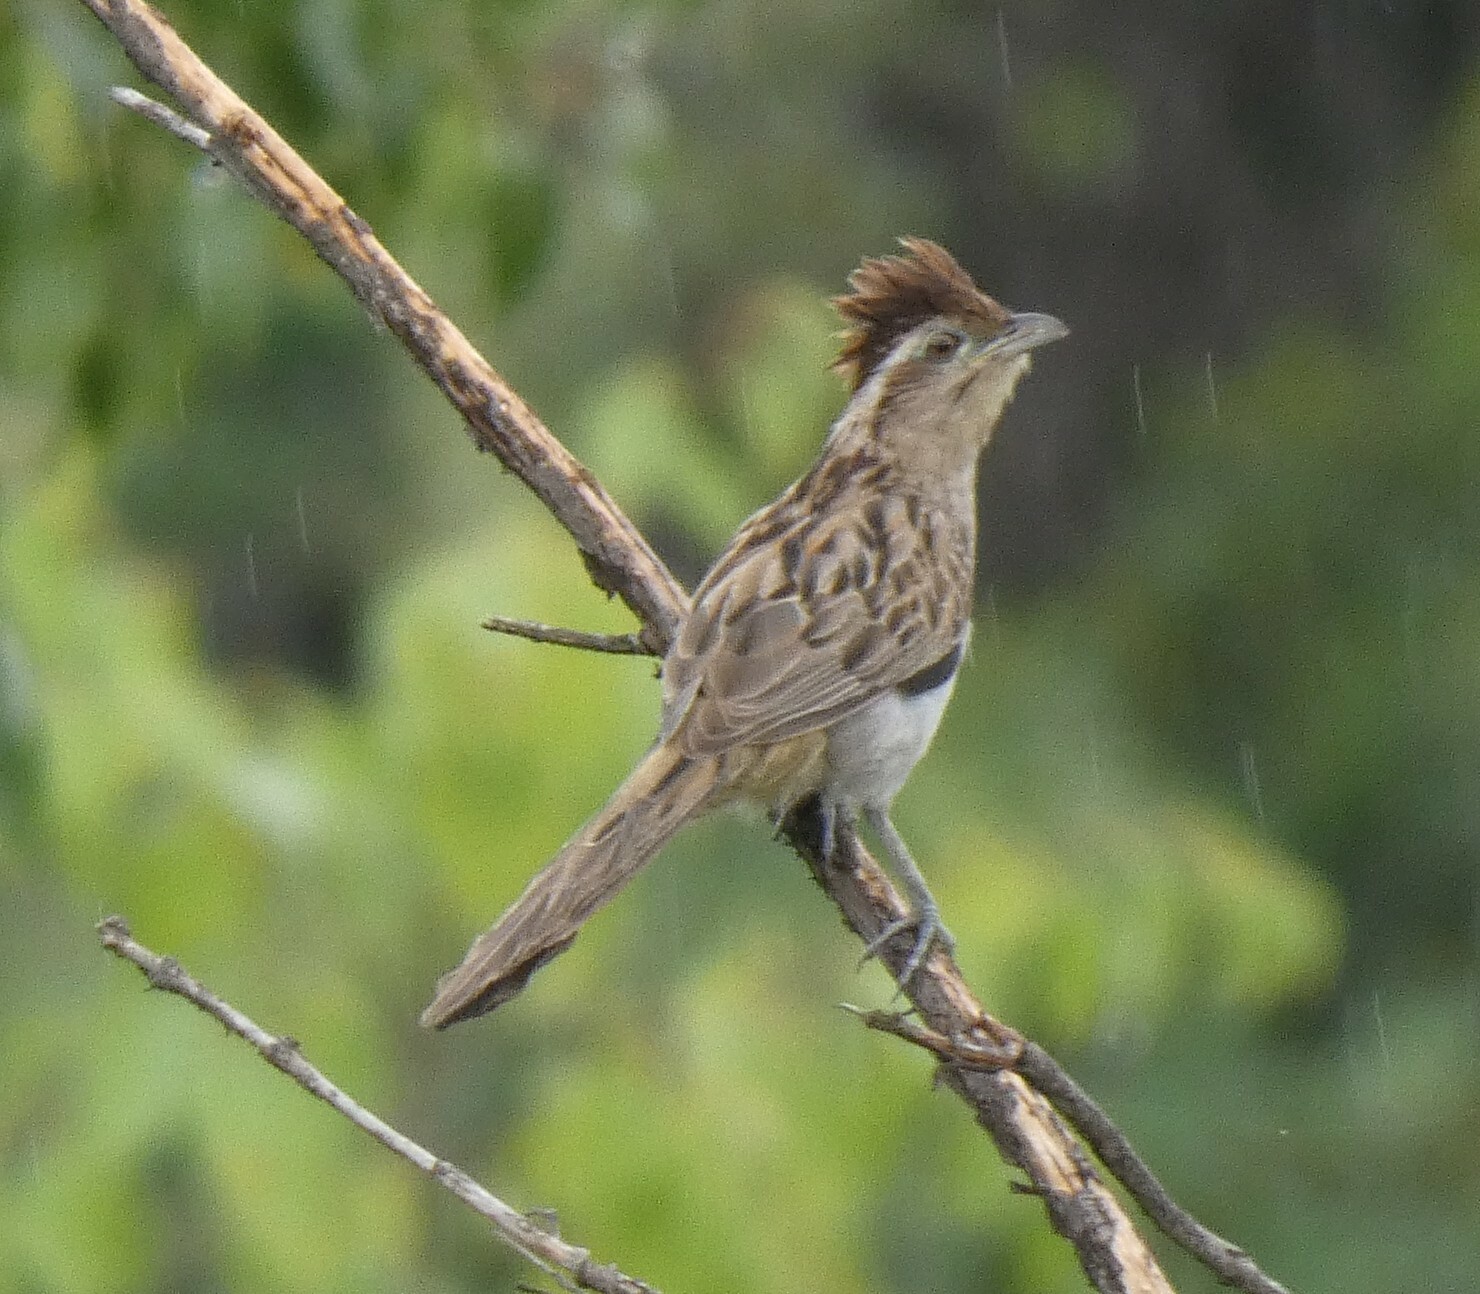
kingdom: Animalia
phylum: Chordata
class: Aves
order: Cuculiformes
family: Cuculidae
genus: Tapera
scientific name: Tapera naevia
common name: Striped cuckoo
